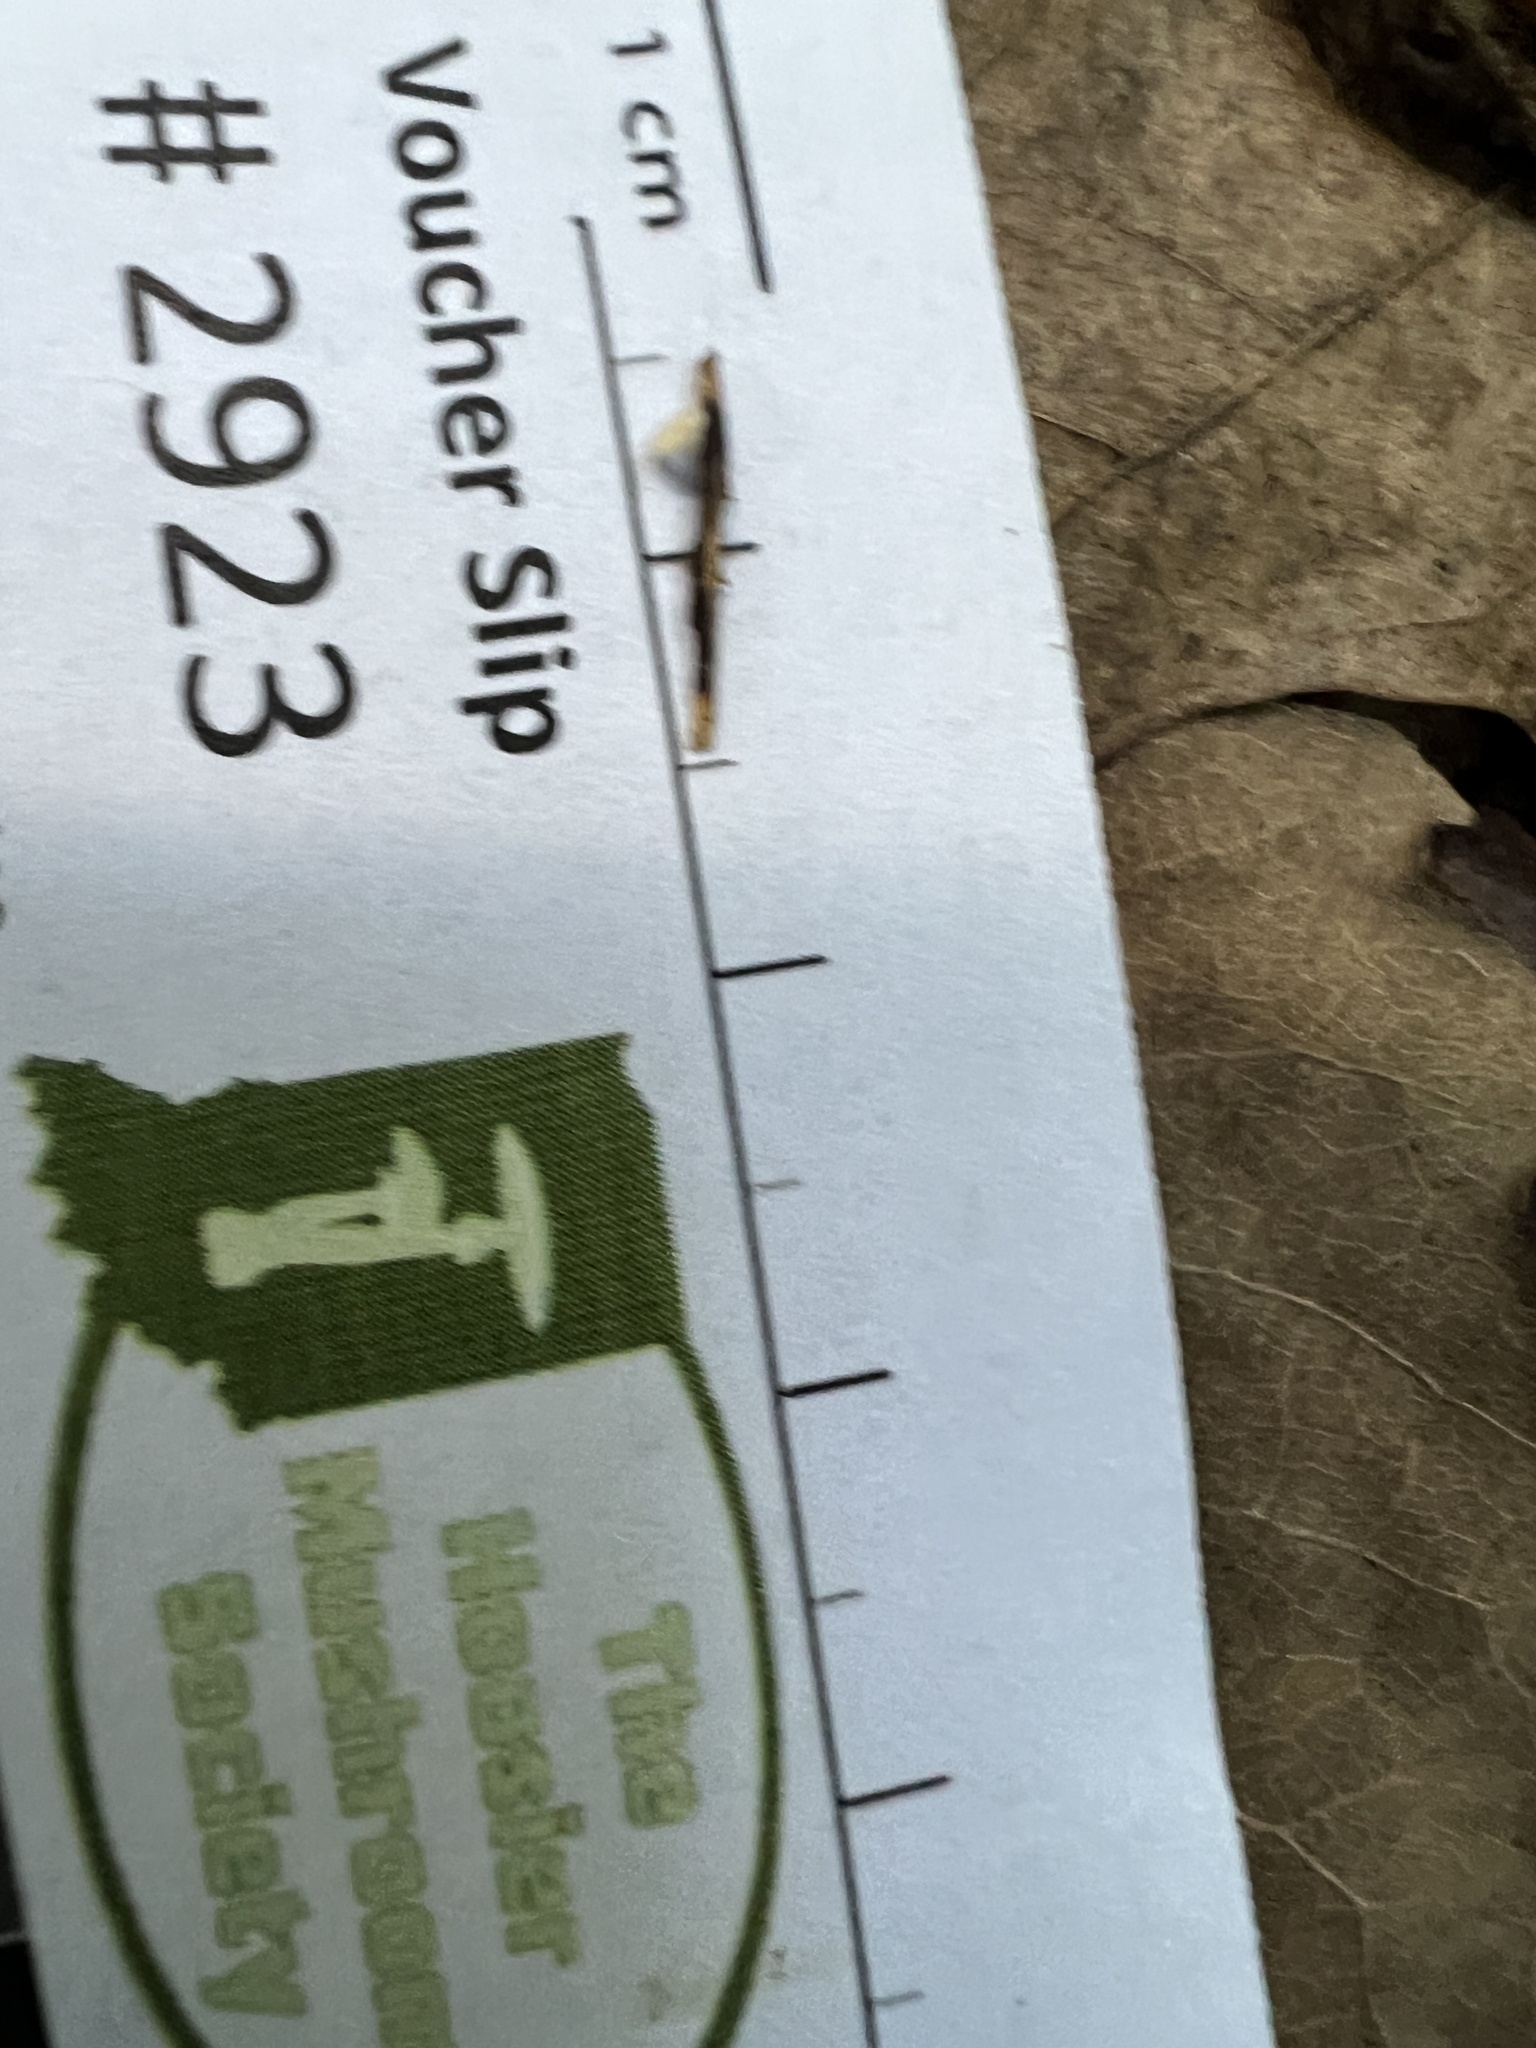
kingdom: Fungi
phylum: Ascomycota
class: Leotiomycetes
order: Helotiales
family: Helotiaceae
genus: Hymenoscyphus
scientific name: Hymenoscyphus pusillus
